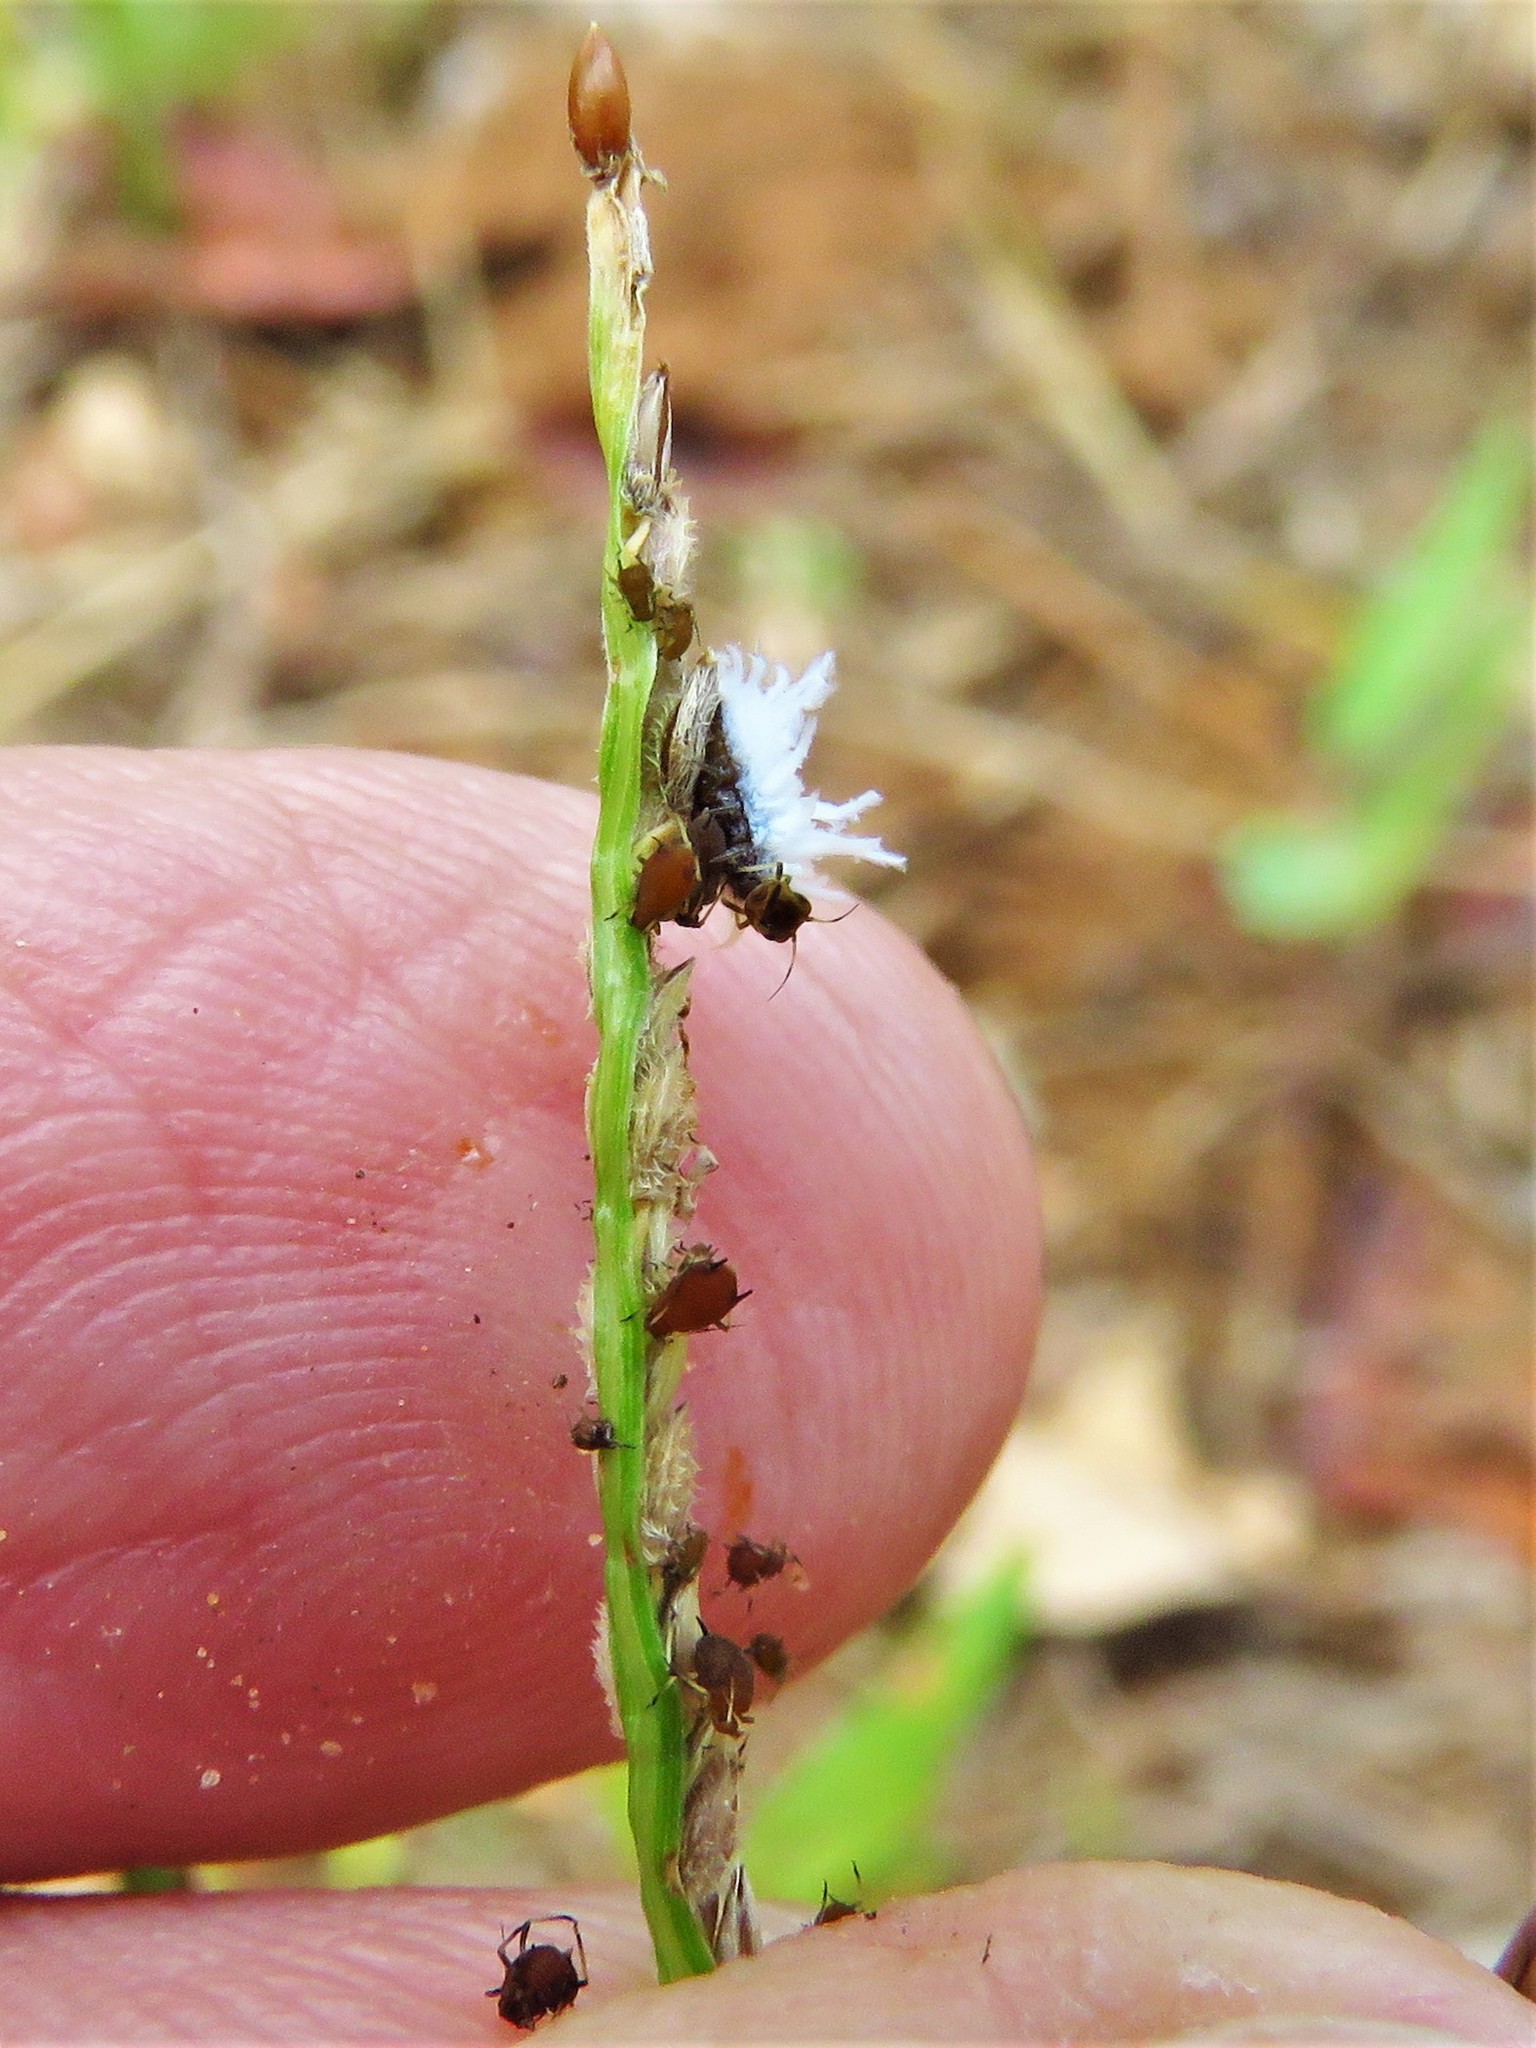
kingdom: Animalia
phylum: Arthropoda
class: Insecta
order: Hemiptera
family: Aphididae
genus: Hysteroneura
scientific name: Hysteroneura setariae
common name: Rusty plum aphid
